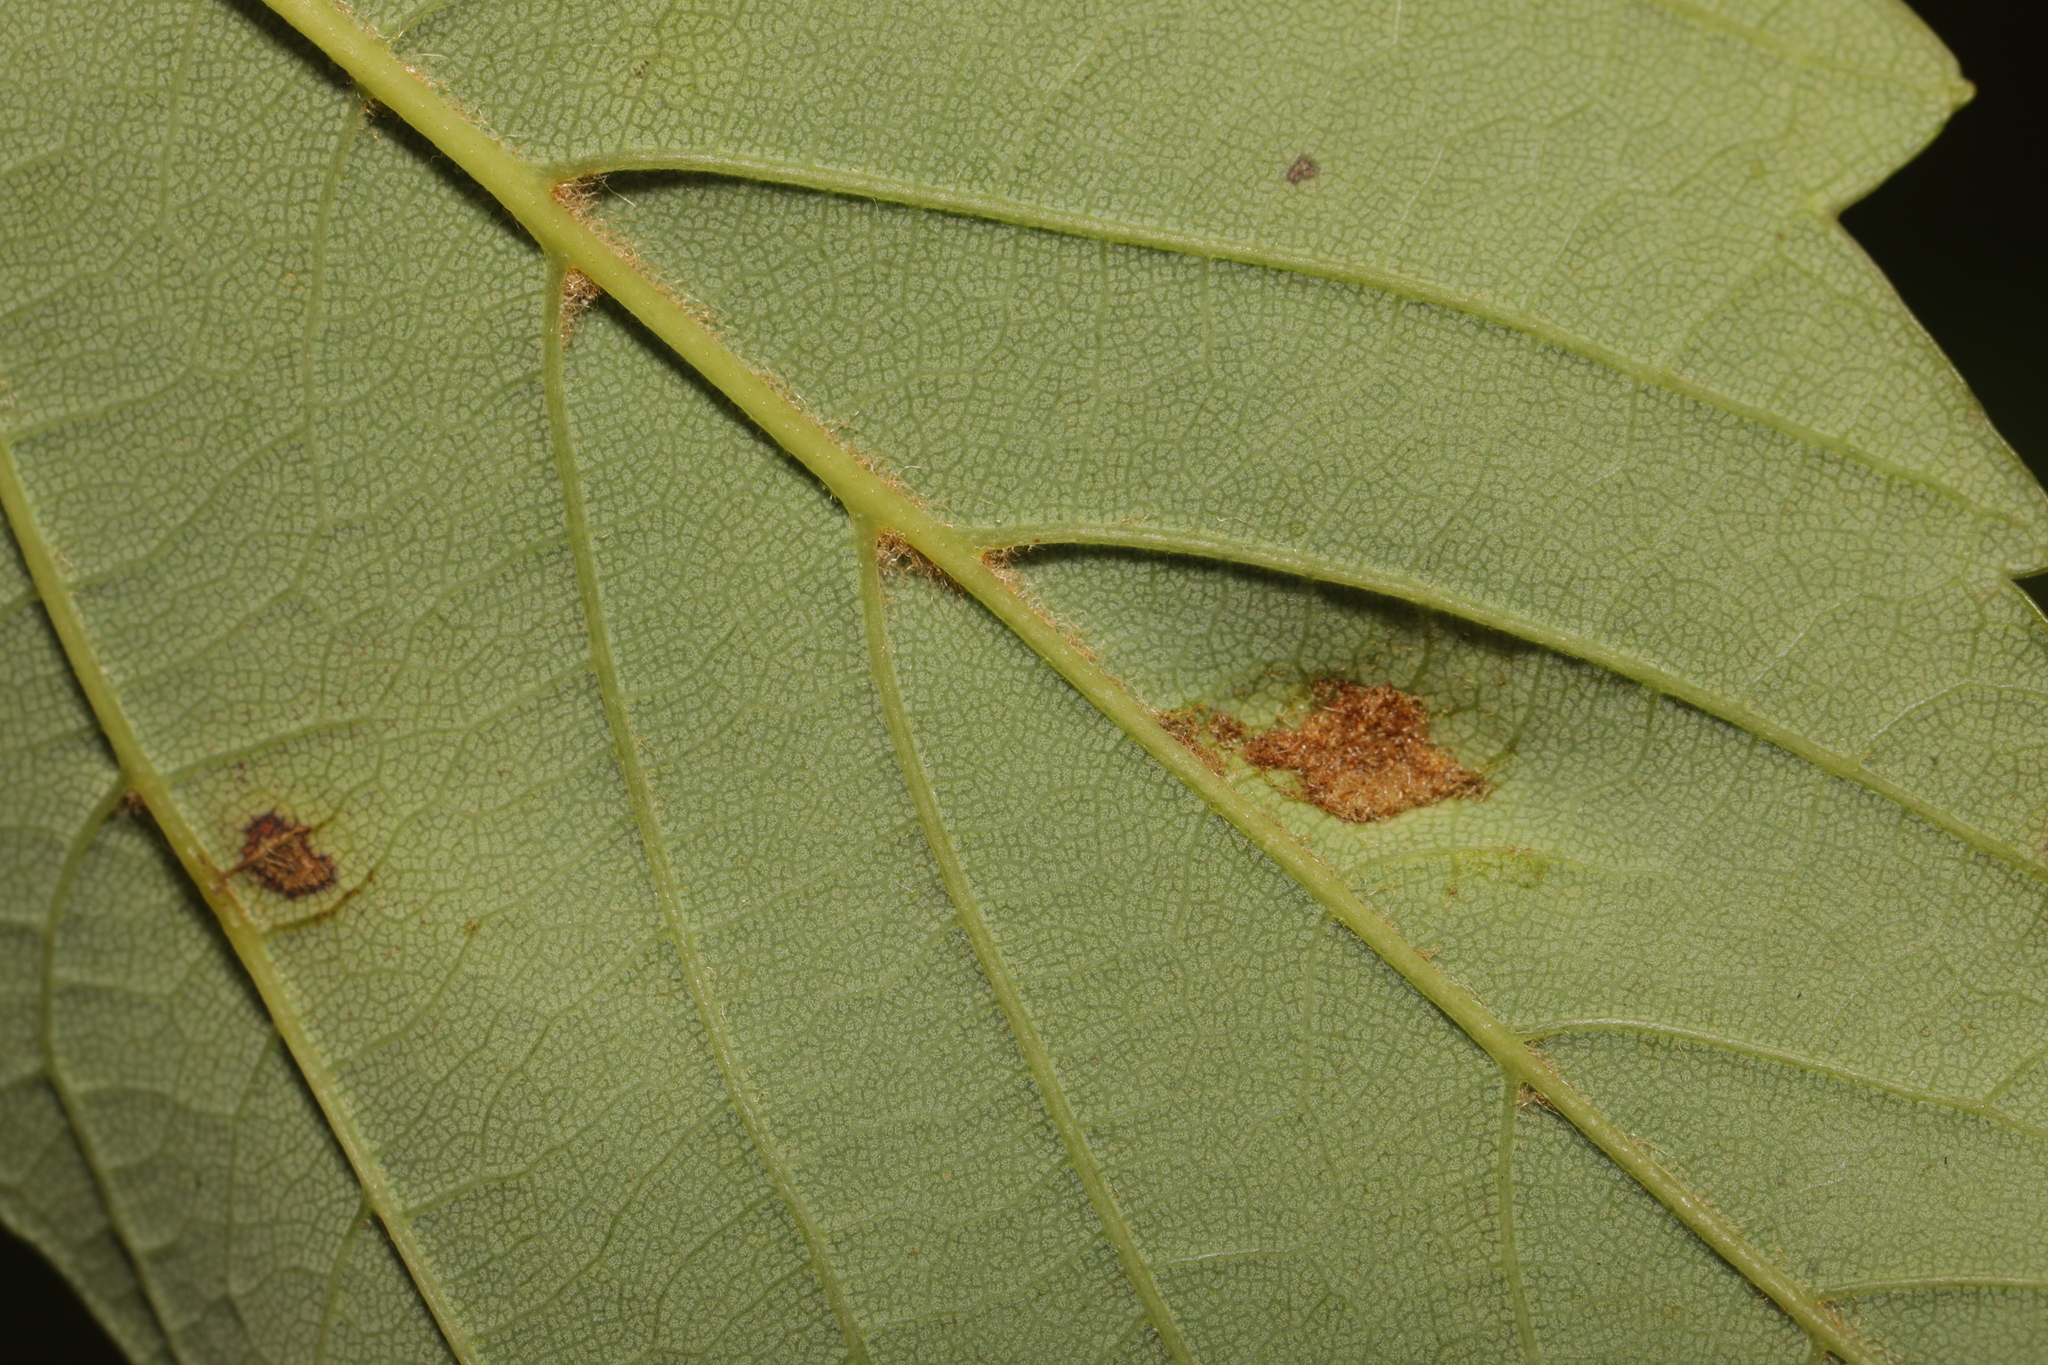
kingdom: Animalia
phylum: Arthropoda
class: Arachnida
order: Trombidiformes
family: Eriophyidae
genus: Aceria
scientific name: Aceria pseudoplatani
